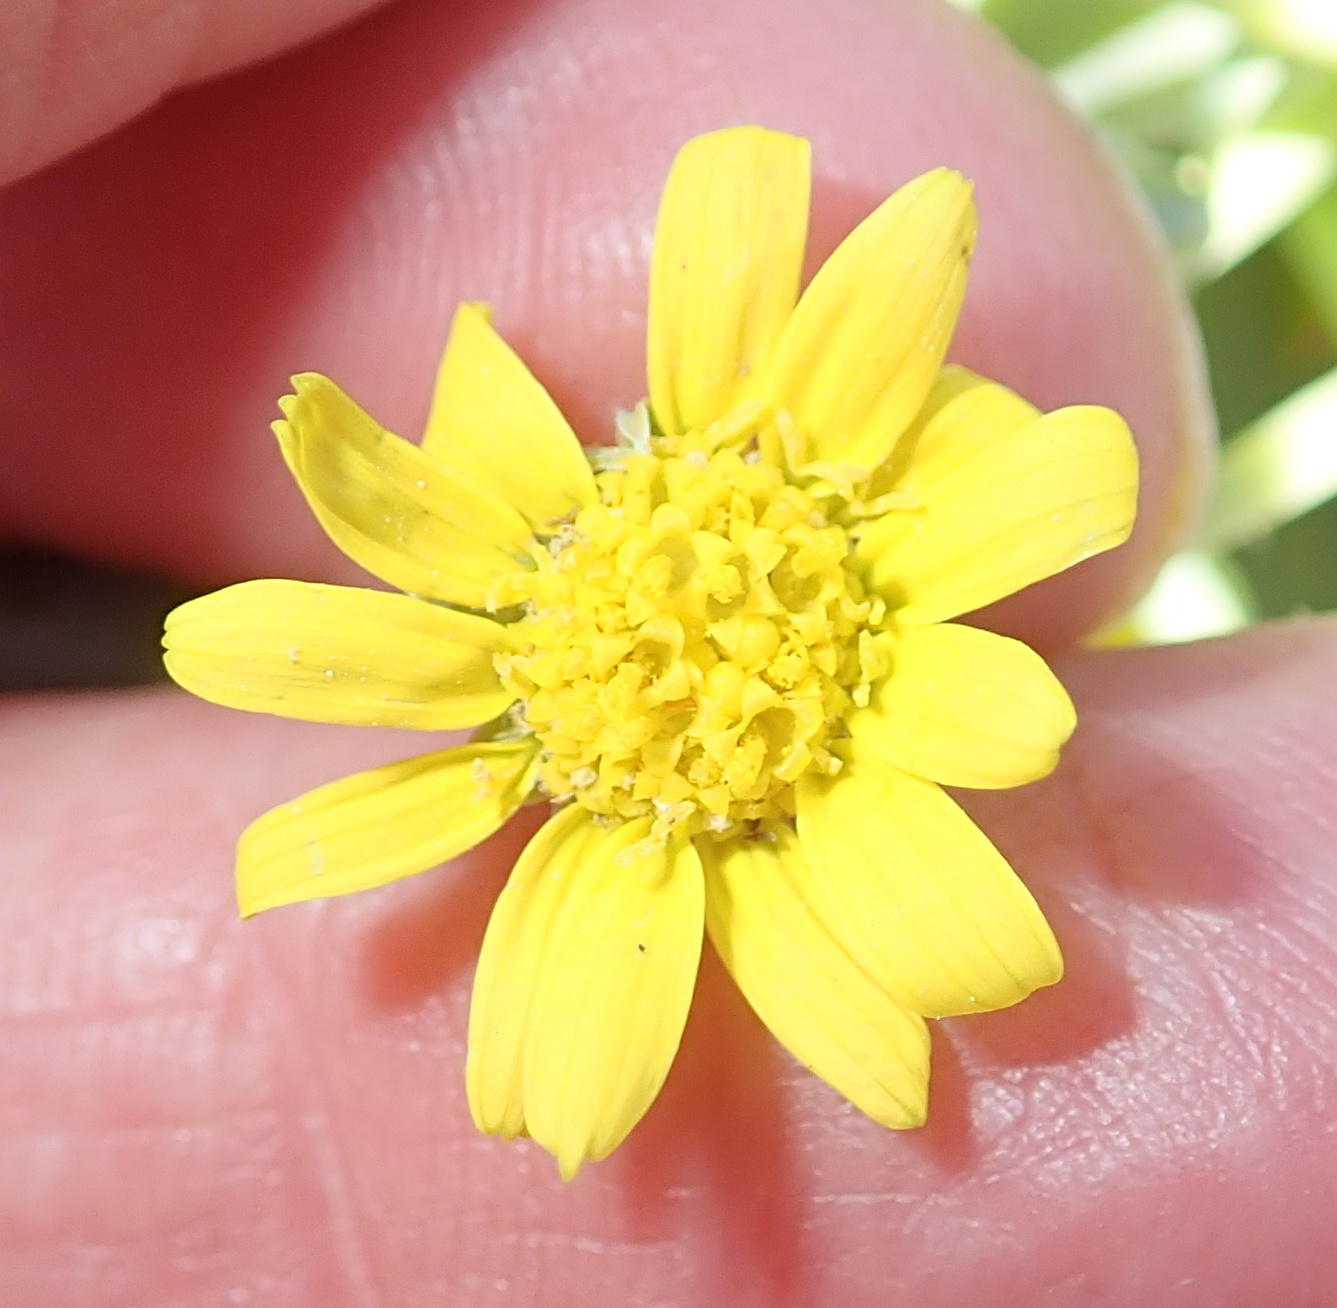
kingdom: Plantae
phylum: Tracheophyta
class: Magnoliopsida
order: Asterales
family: Asteraceae
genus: Othonna
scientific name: Othonna intermedia
